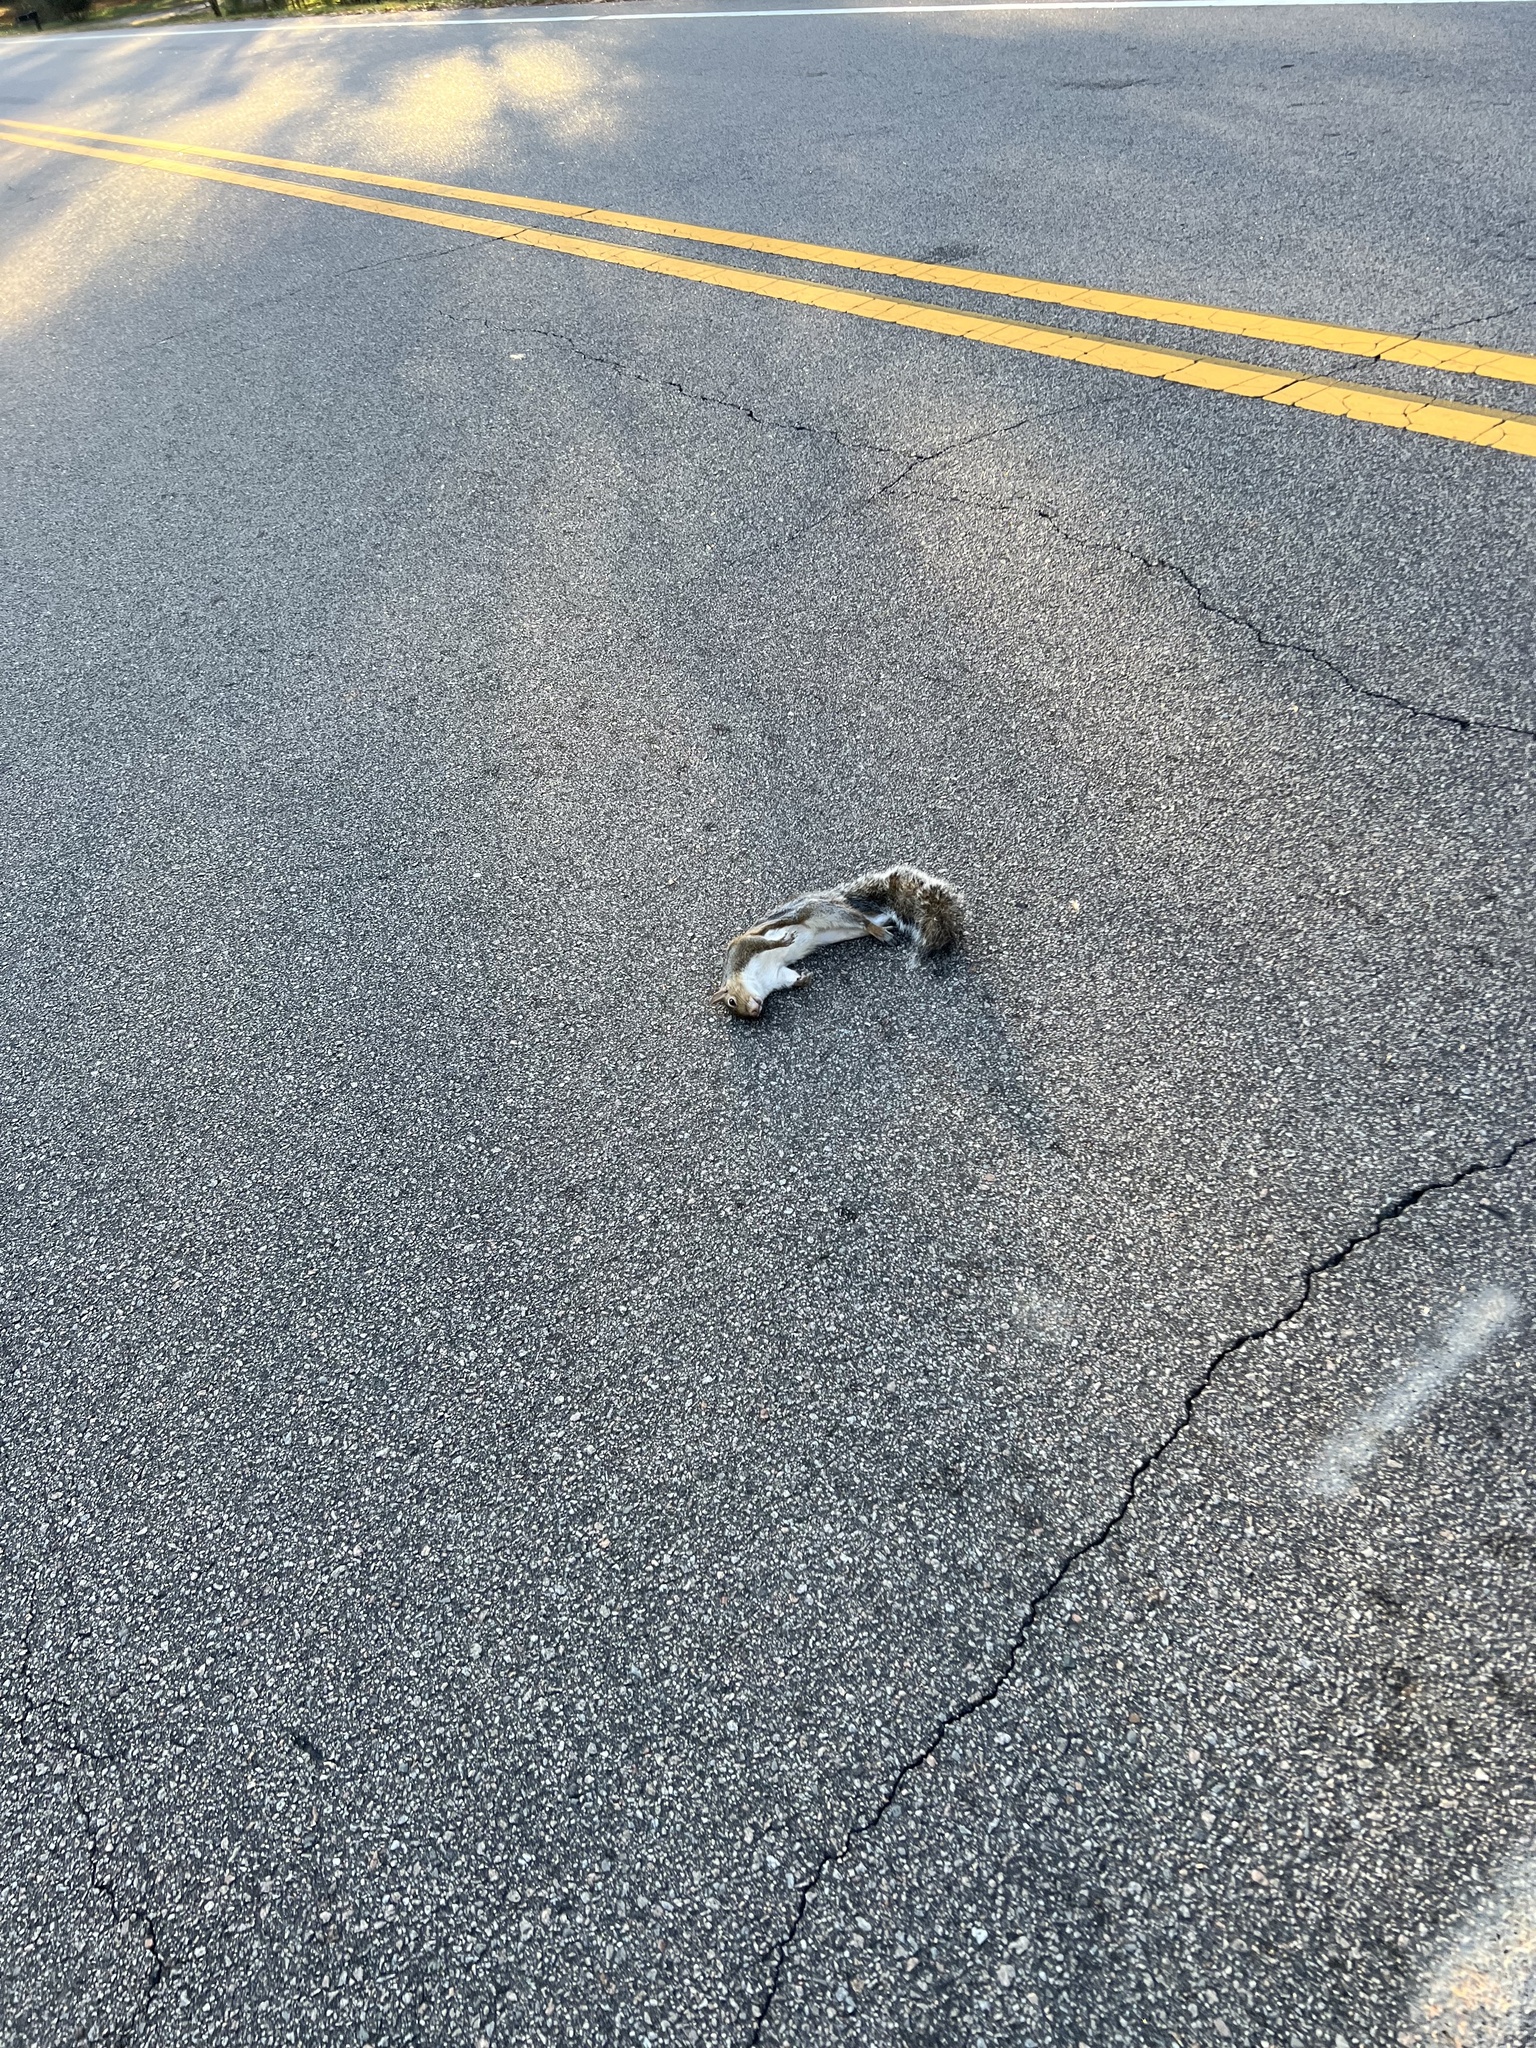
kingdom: Animalia
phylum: Chordata
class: Mammalia
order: Rodentia
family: Sciuridae
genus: Sciurus
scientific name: Sciurus carolinensis
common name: Eastern gray squirrel
